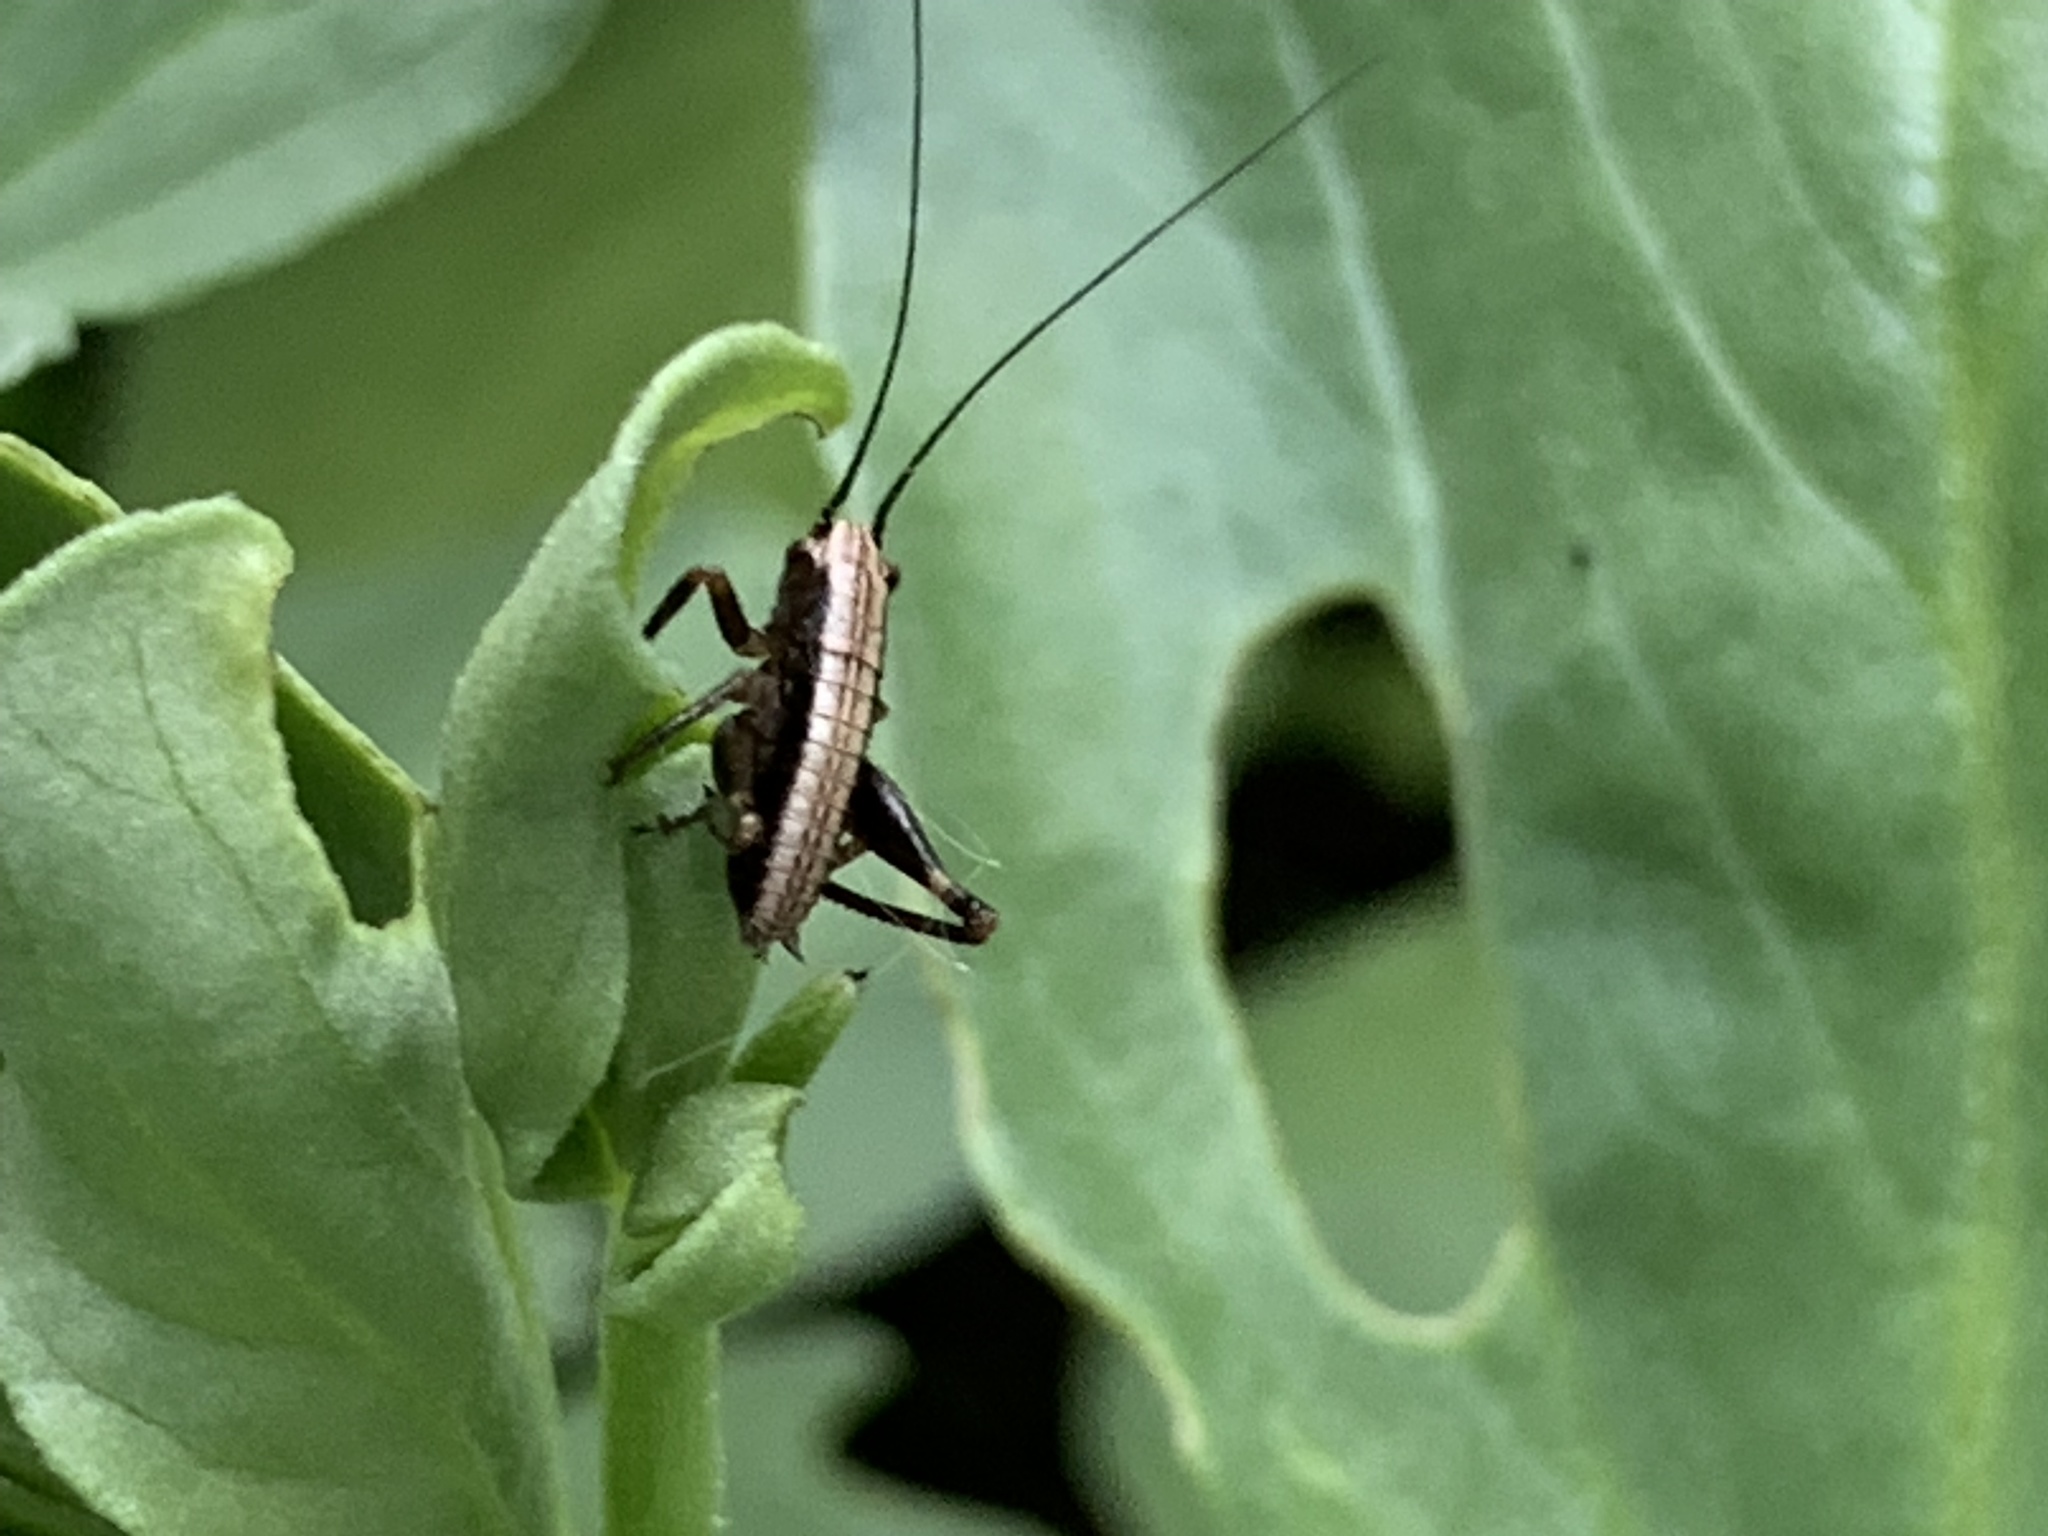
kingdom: Animalia
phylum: Arthropoda
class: Insecta
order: Orthoptera
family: Tettigoniidae
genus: Pholidoptera
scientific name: Pholidoptera griseoaptera
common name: Dark bush-cricket
